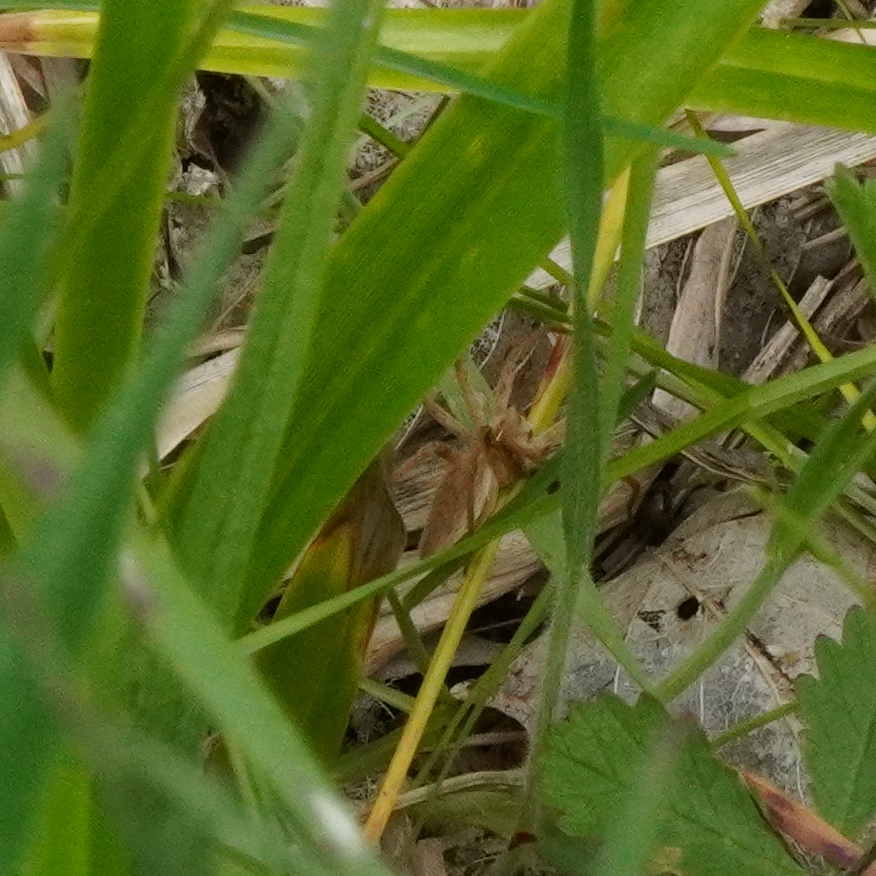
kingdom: Animalia
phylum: Arthropoda
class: Arachnida
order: Araneae
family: Pisauridae
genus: Pisaura
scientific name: Pisaura mirabilis
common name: Tent spider
